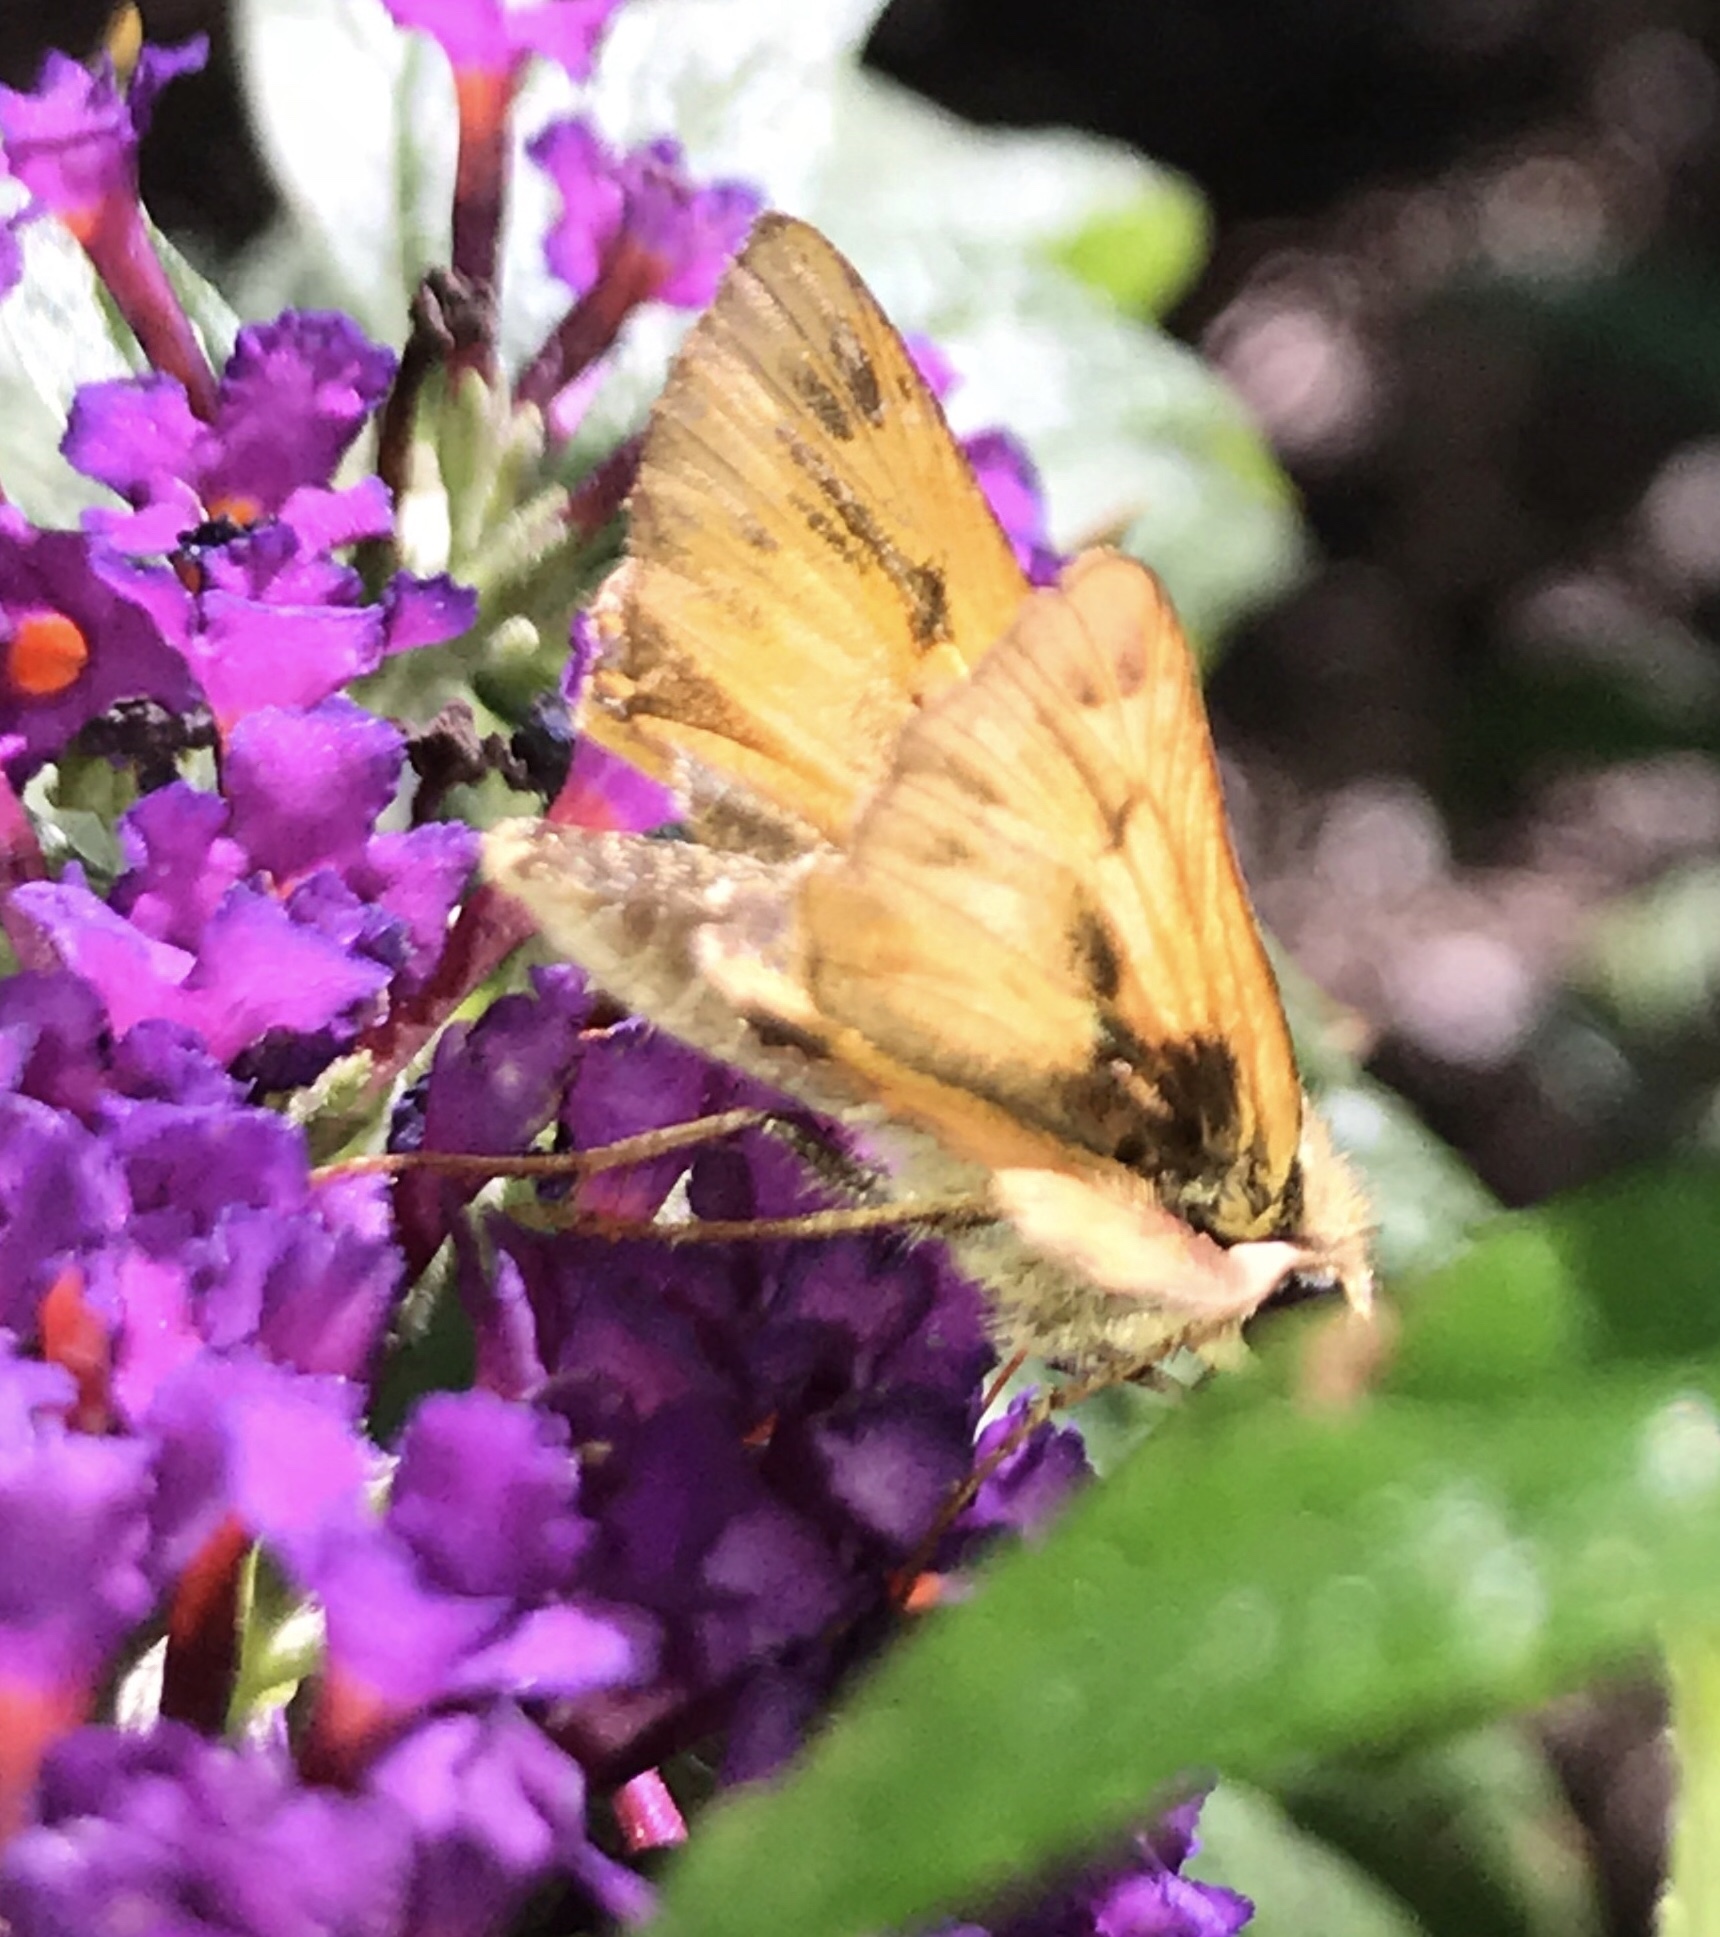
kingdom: Animalia
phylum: Arthropoda
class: Insecta
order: Lepidoptera
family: Hesperiidae
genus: Hylephila
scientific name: Hylephila phyleus
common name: Fiery skipper
